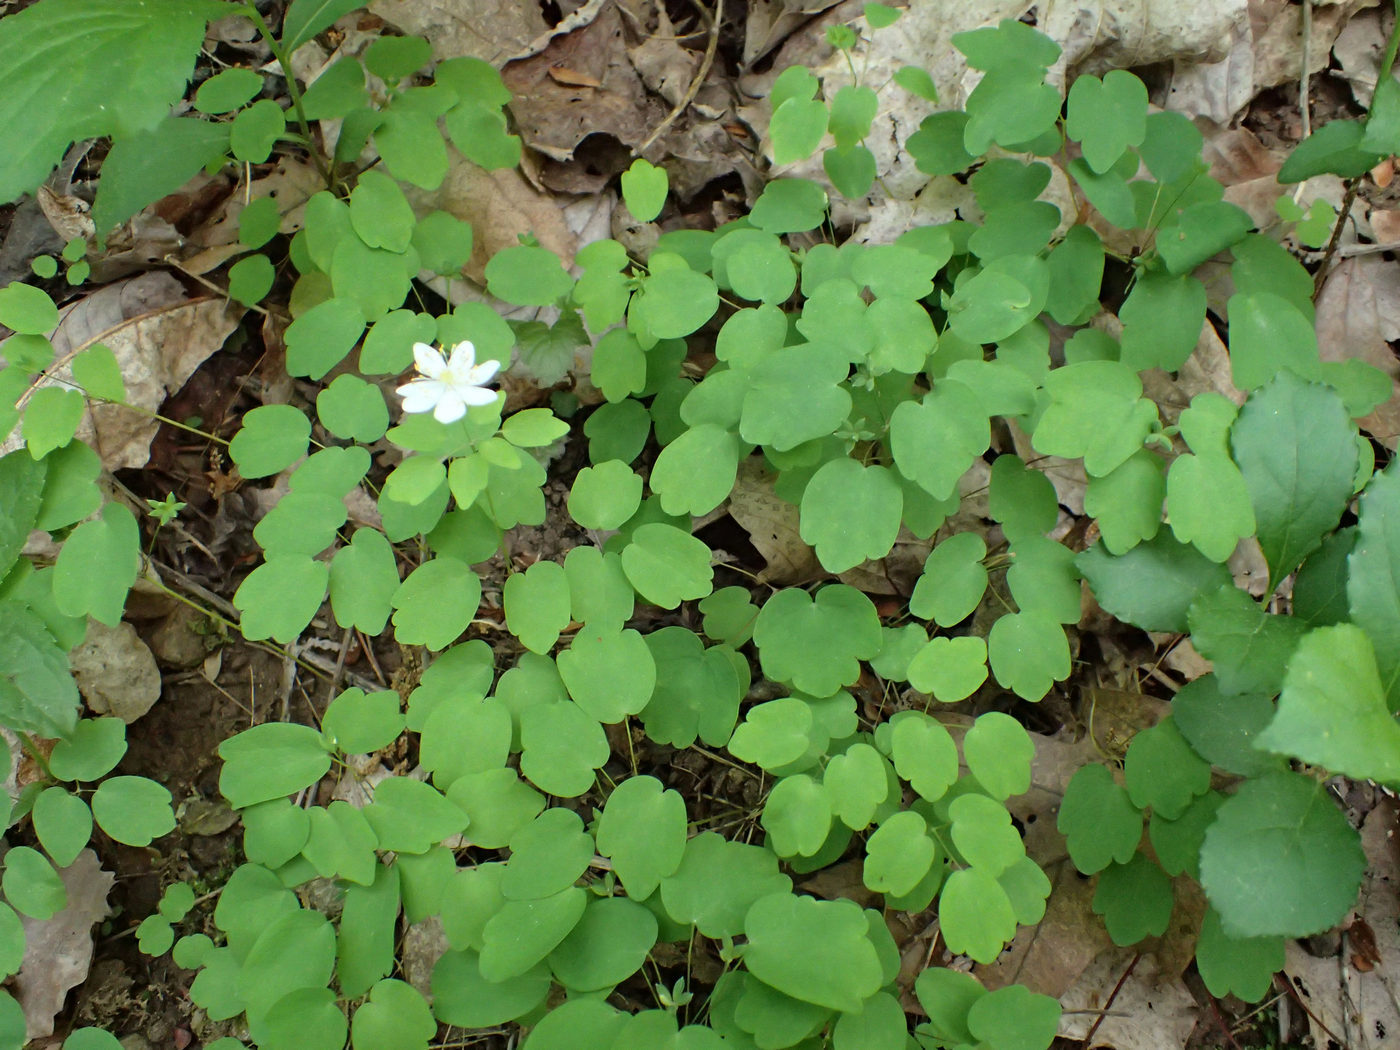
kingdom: Plantae
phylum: Tracheophyta
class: Magnoliopsida
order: Ranunculales
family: Ranunculaceae
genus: Thalictrum
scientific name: Thalictrum thalictroides
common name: Rue-anemone
